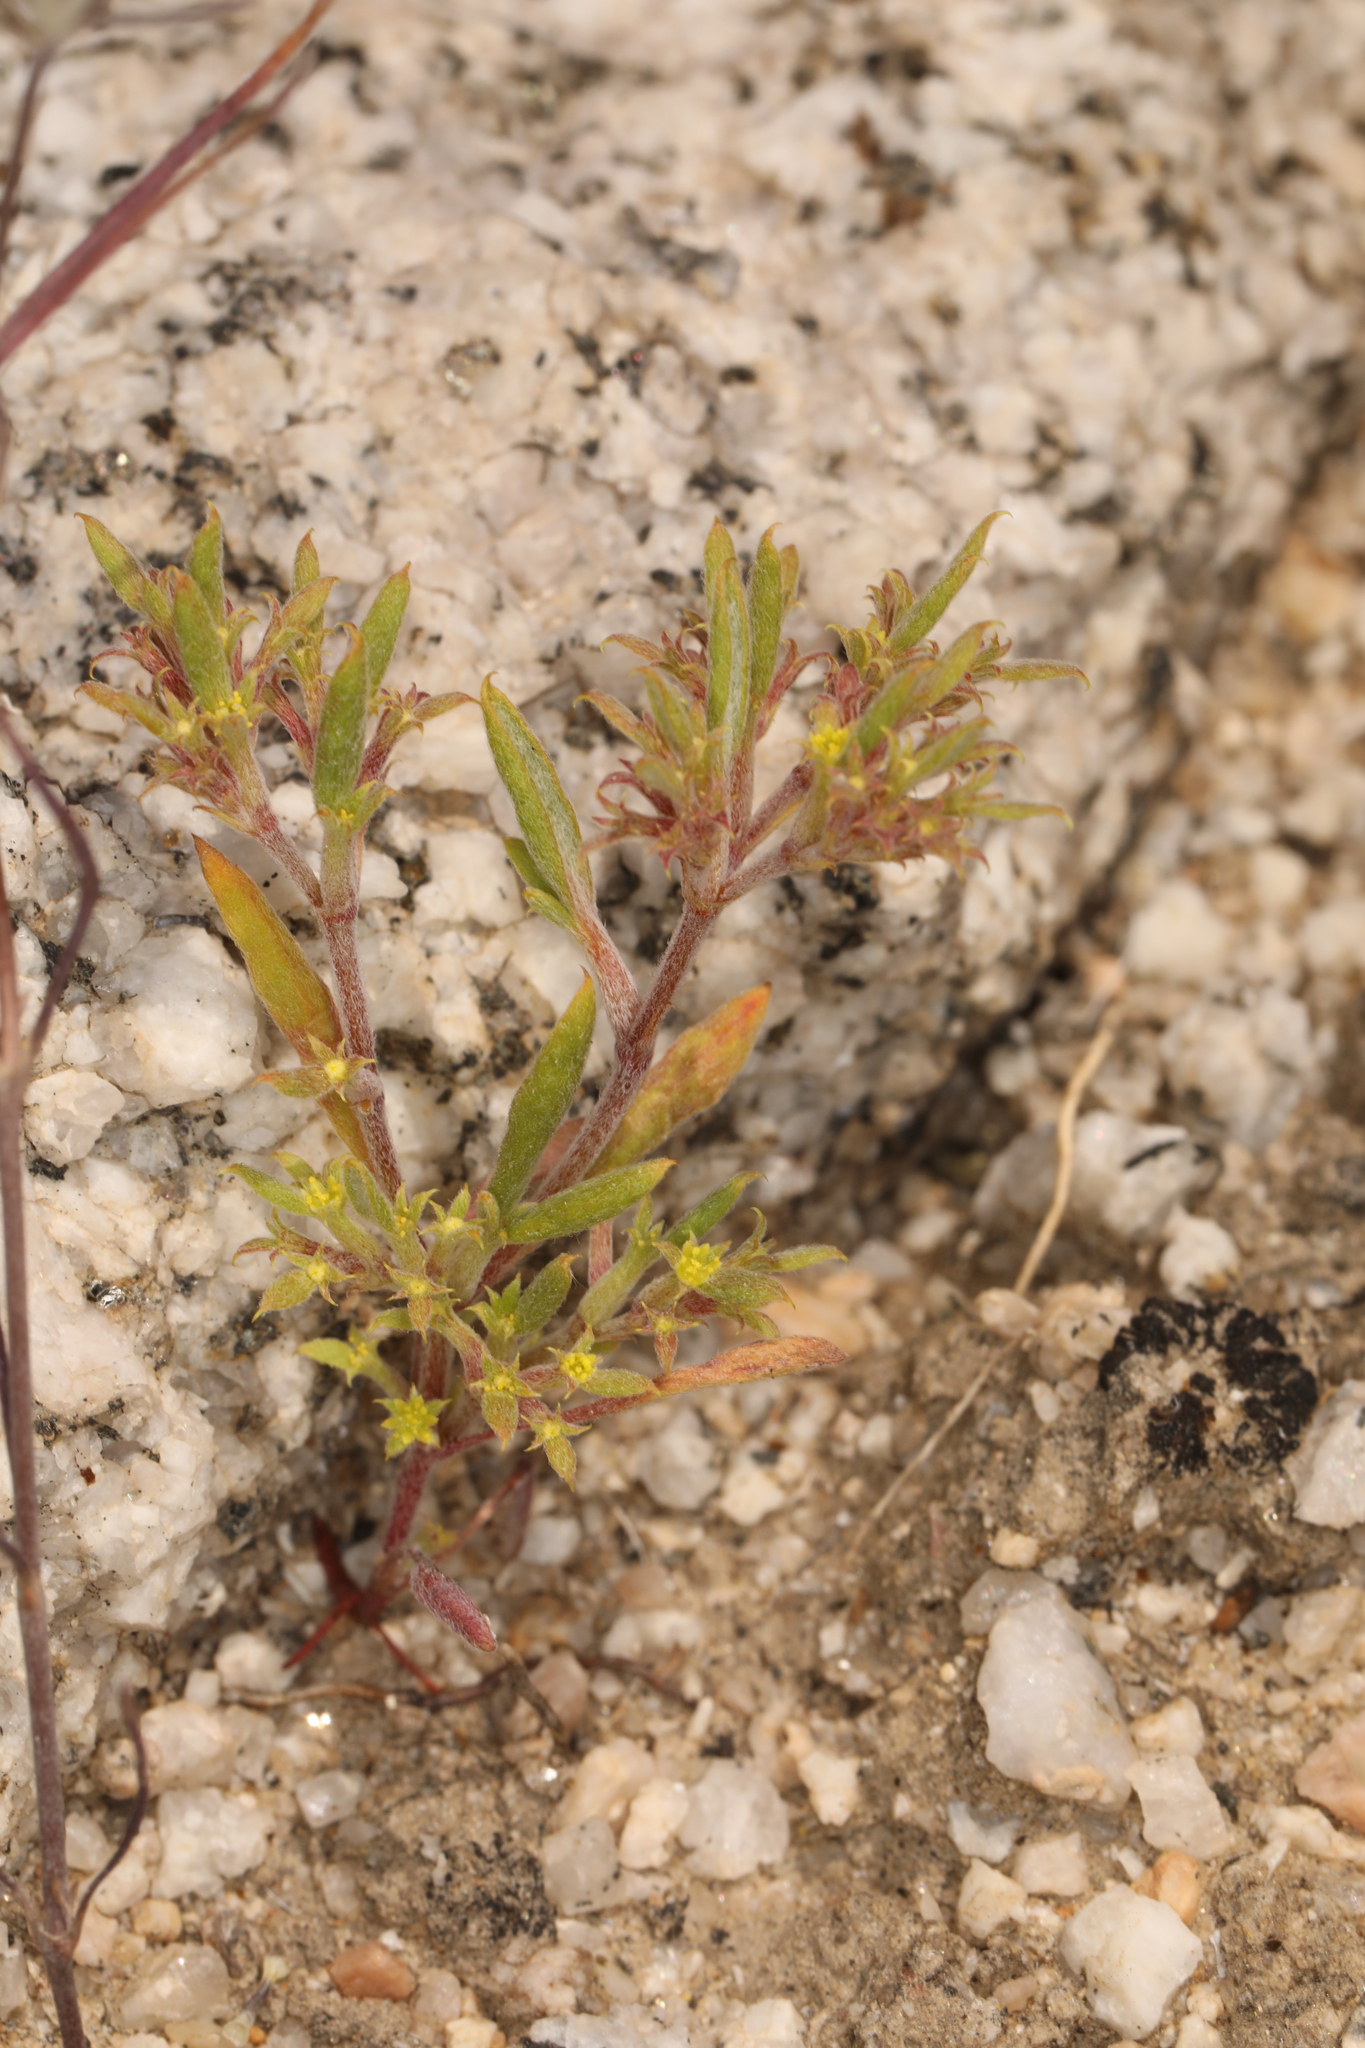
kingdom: Plantae
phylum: Tracheophyta
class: Magnoliopsida
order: Caryophyllales
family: Polygonaceae
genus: Chorizanthe
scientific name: Chorizanthe watsonii
